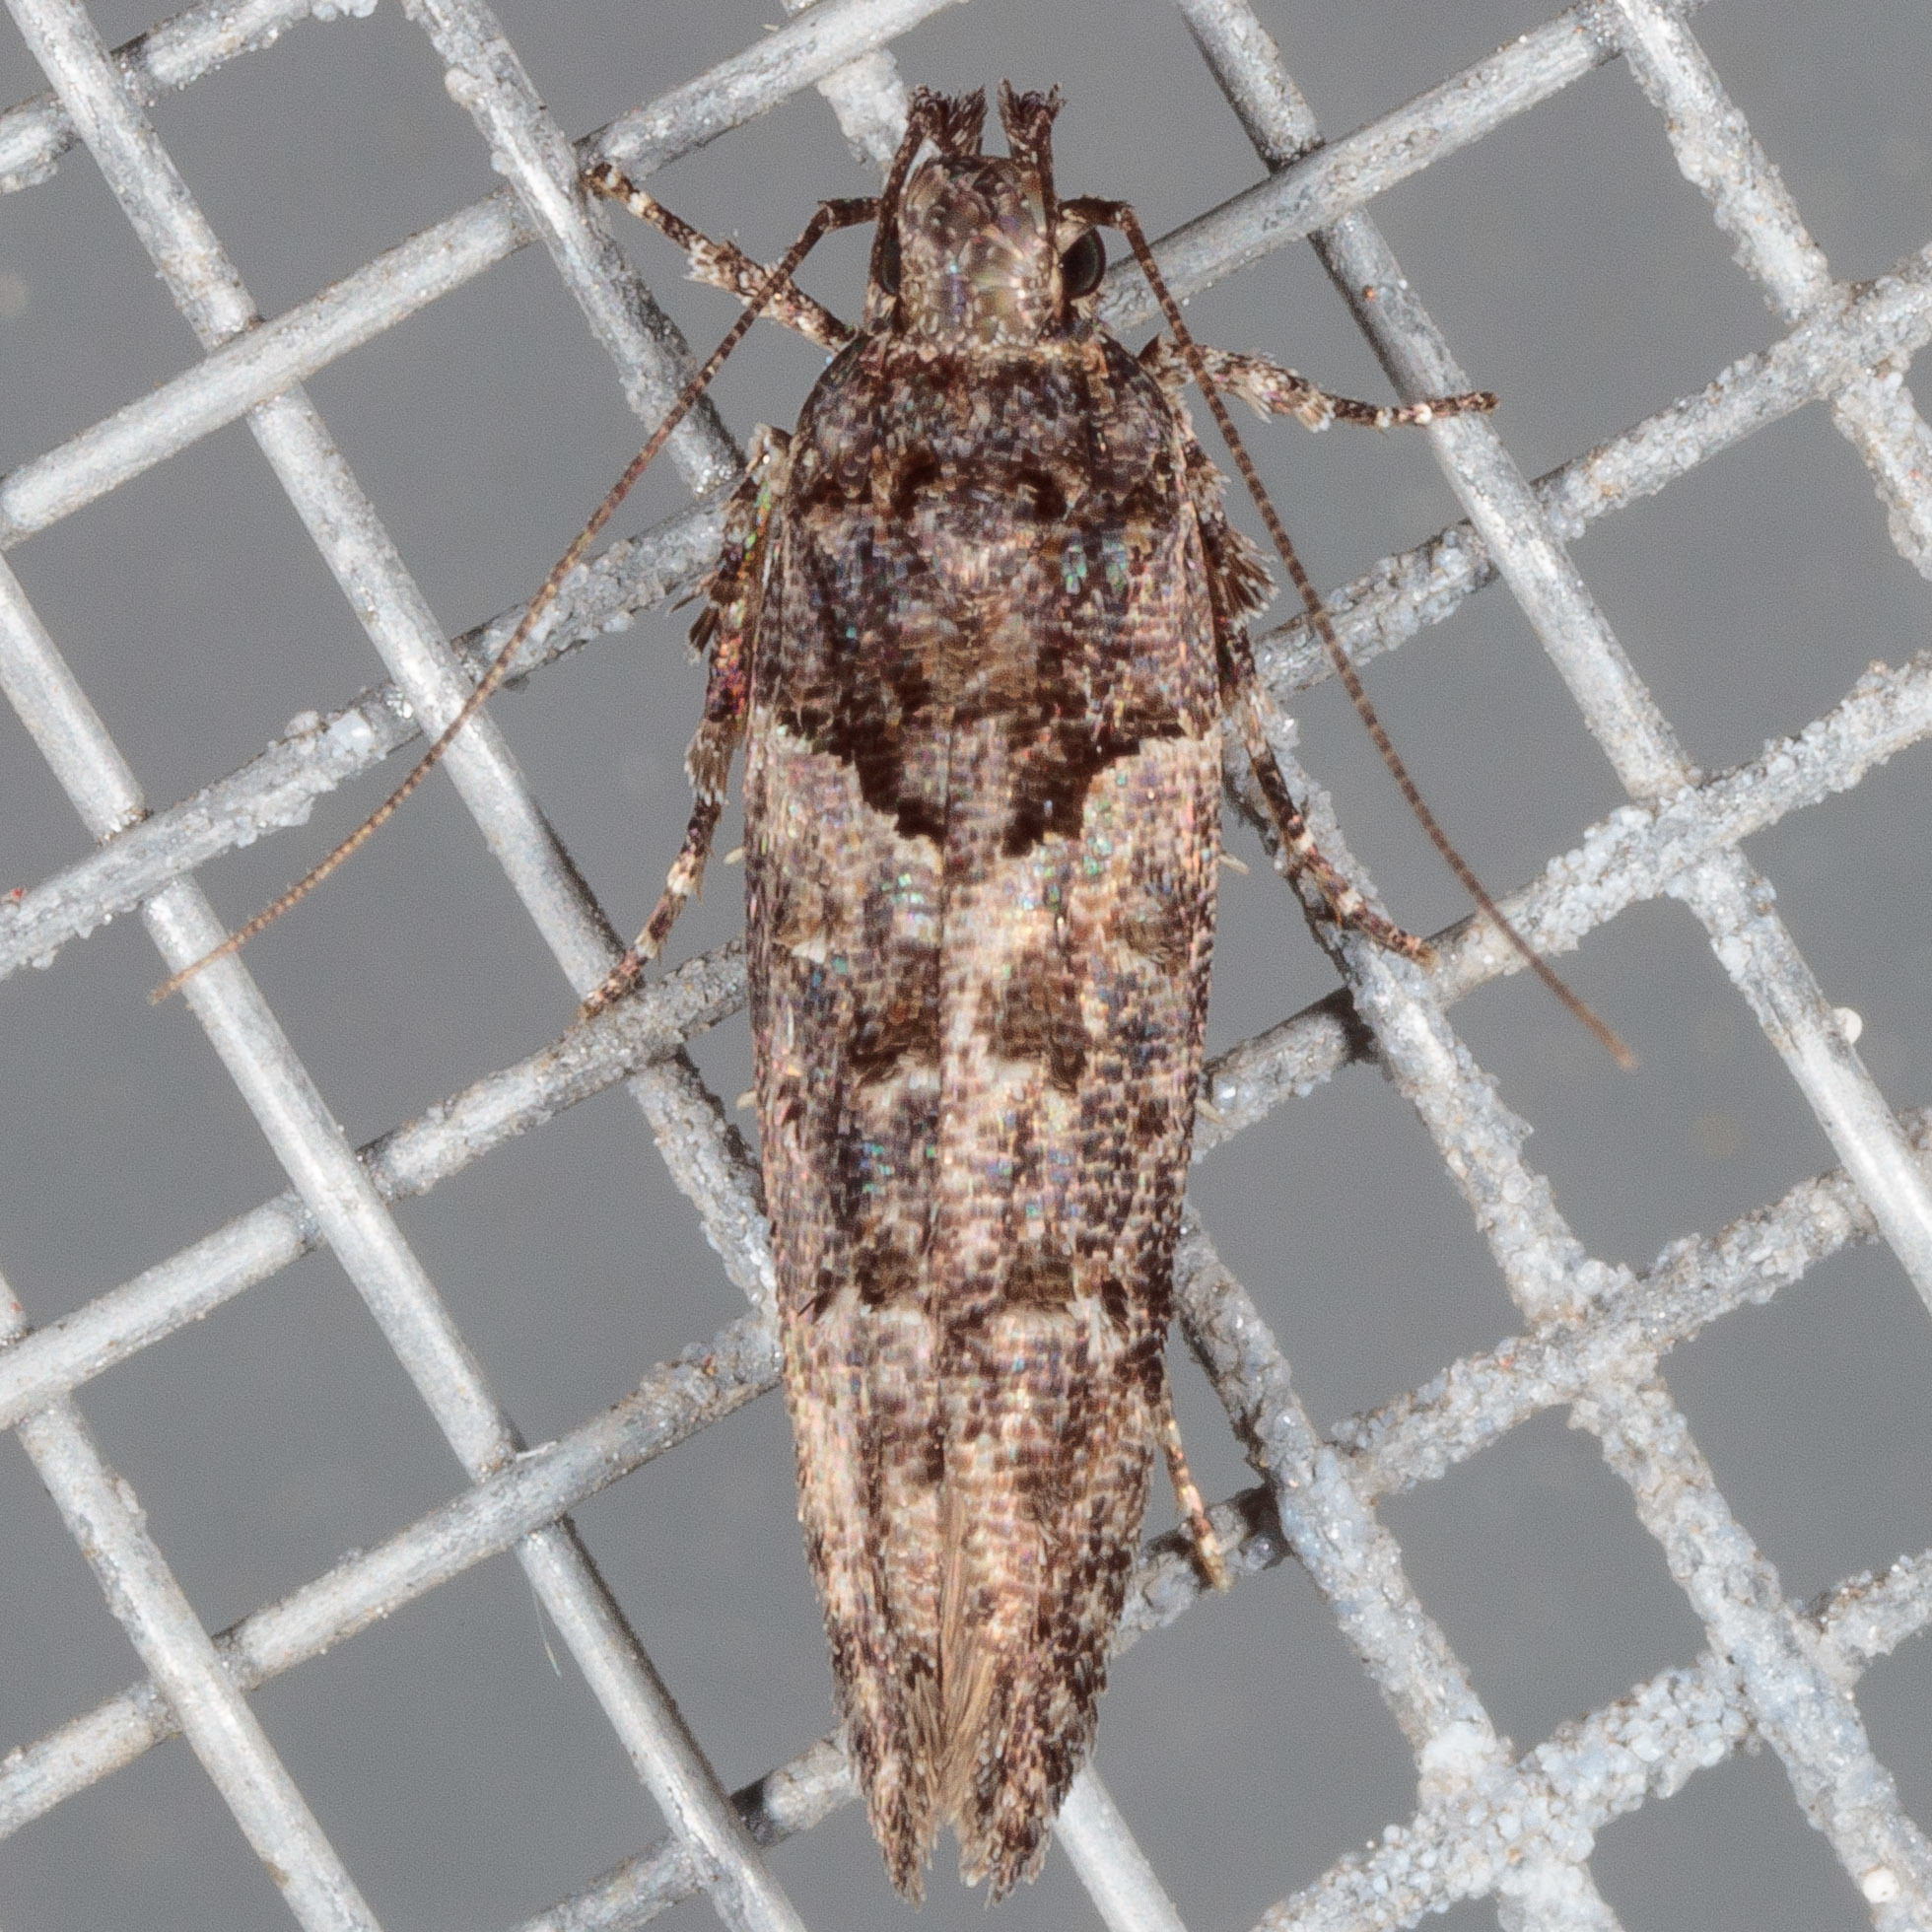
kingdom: Animalia
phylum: Arthropoda
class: Insecta
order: Lepidoptera
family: Gelechiidae
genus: Telphusa
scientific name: Telphusa perspicua
